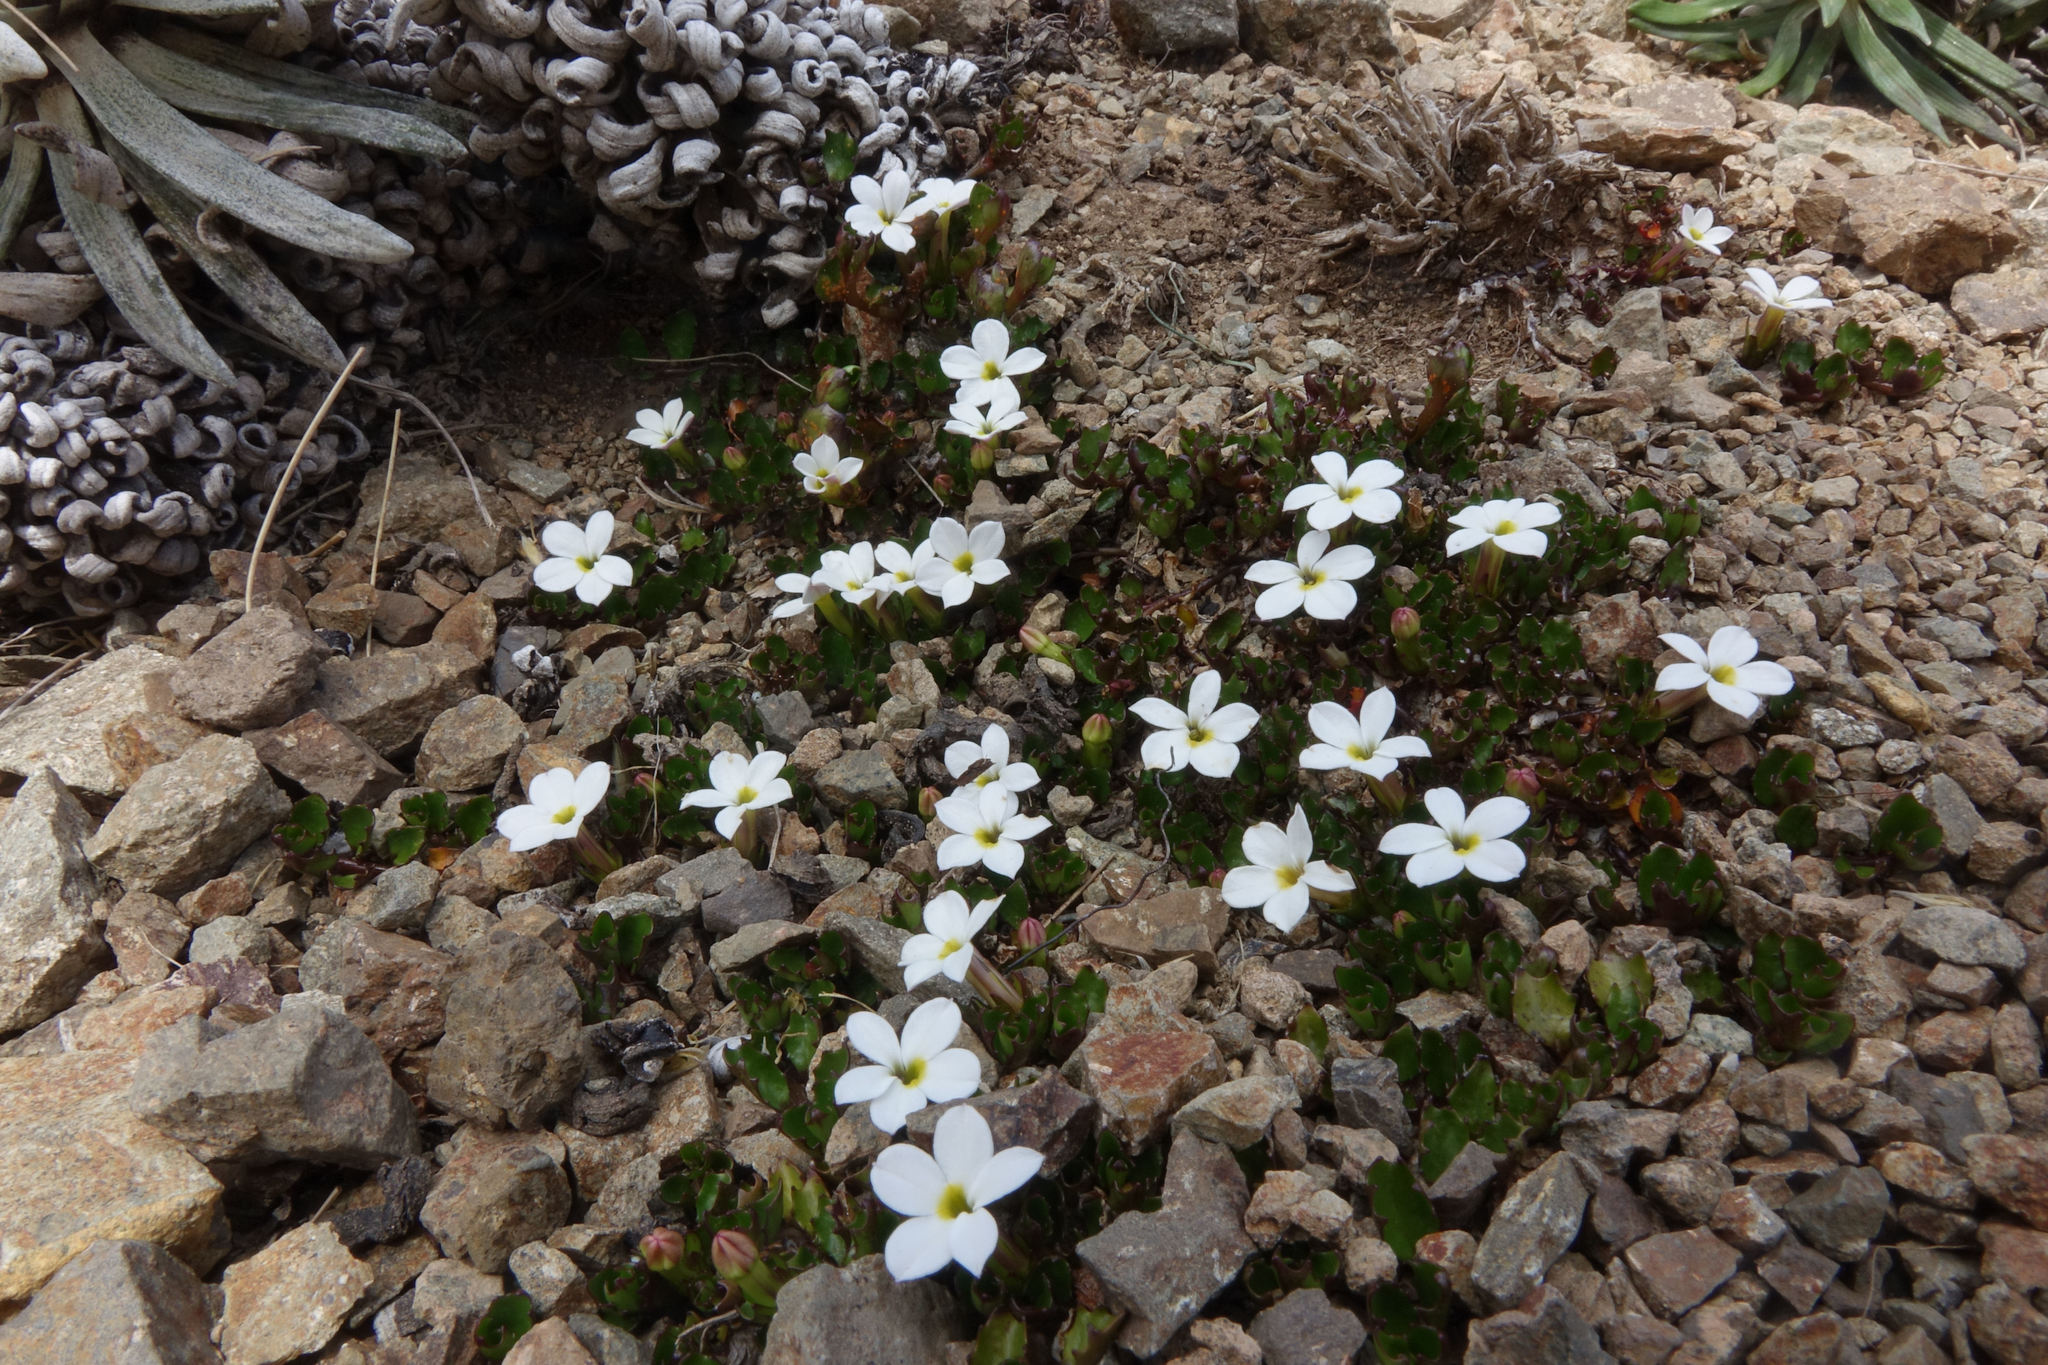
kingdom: Plantae
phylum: Tracheophyta
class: Magnoliopsida
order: Asterales
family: Campanulaceae
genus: Lobelia
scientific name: Lobelia glaberrima
